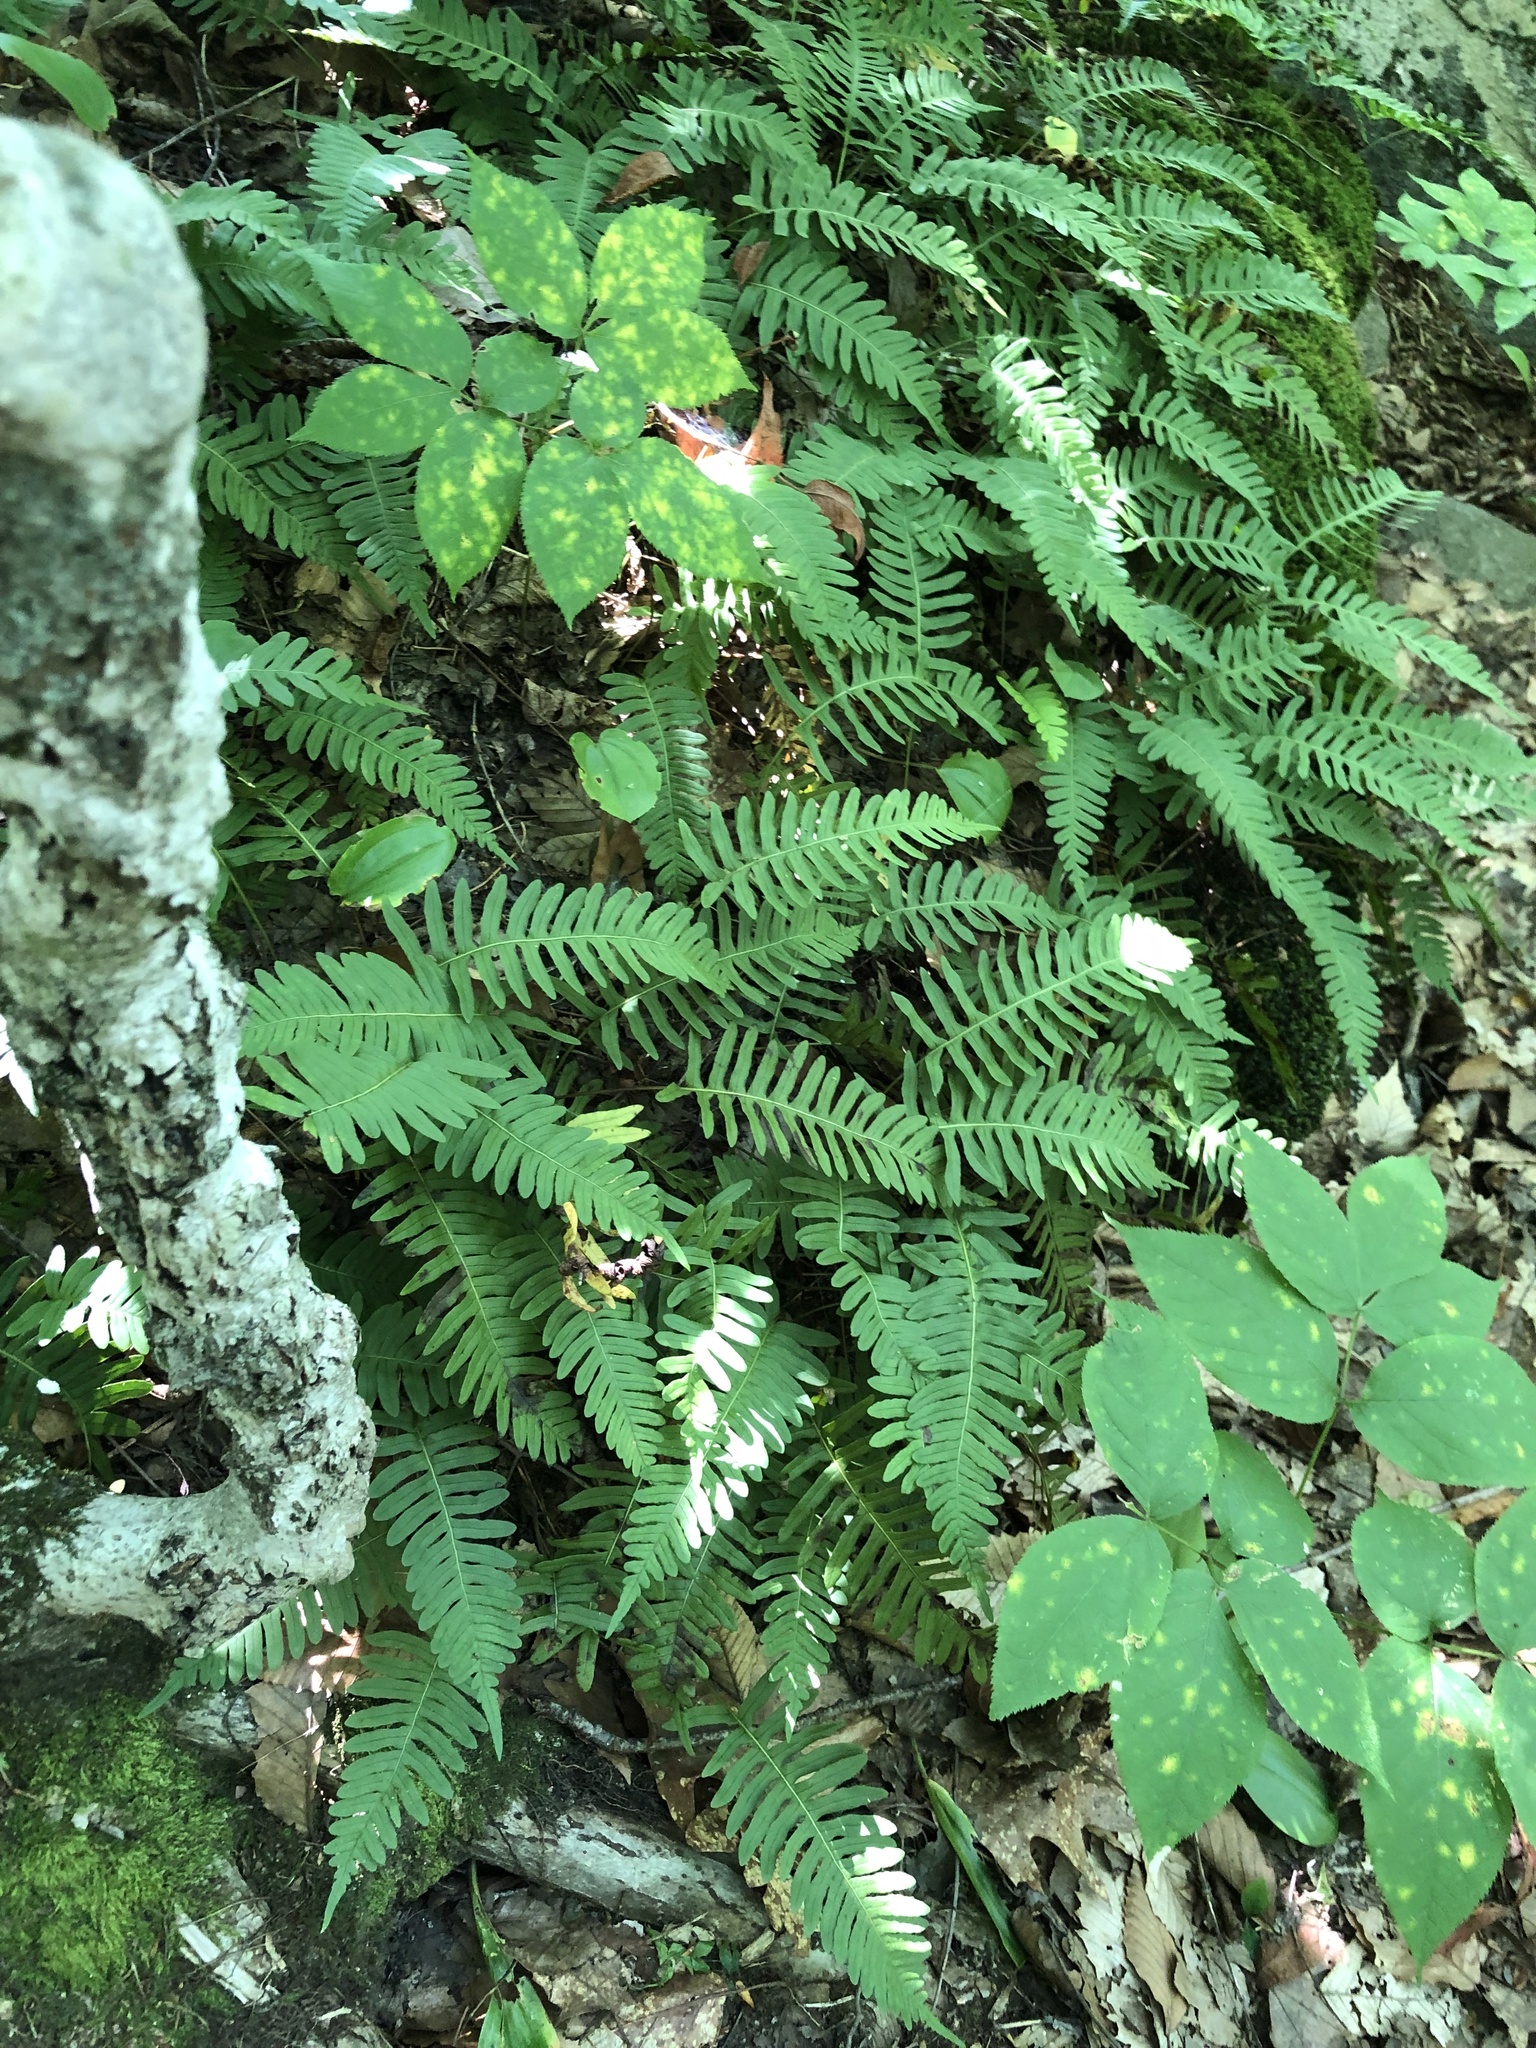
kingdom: Plantae
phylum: Tracheophyta
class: Polypodiopsida
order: Polypodiales
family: Polypodiaceae
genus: Polypodium
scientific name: Polypodium virginianum
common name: American wall fern
